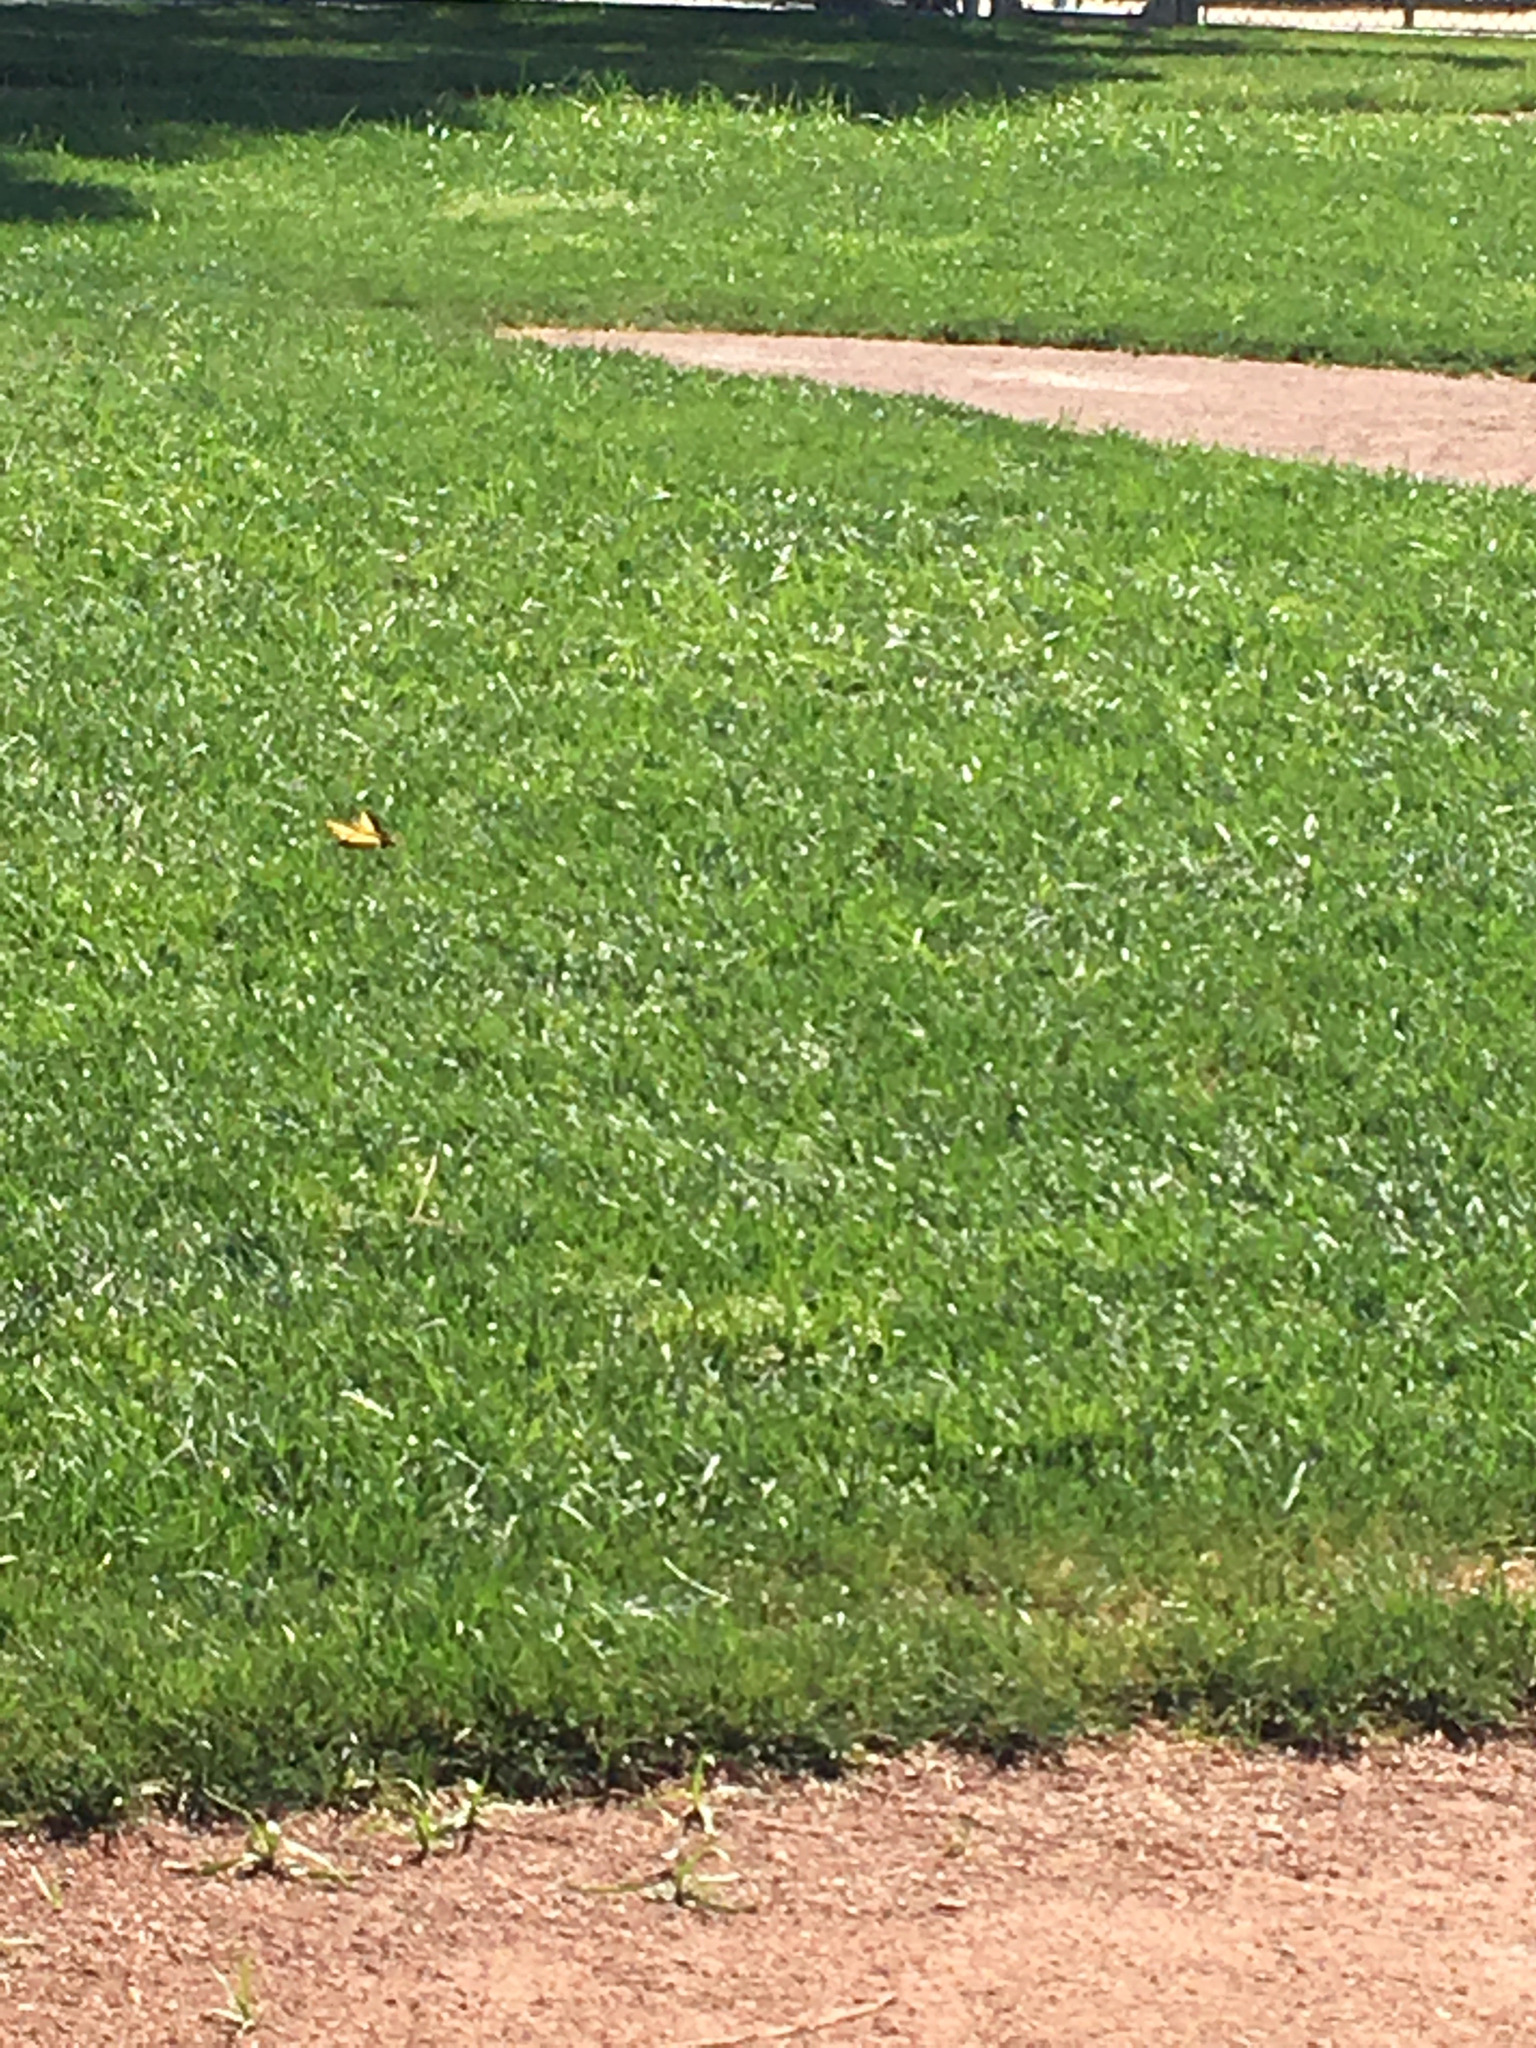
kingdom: Animalia
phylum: Arthropoda
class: Insecta
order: Lepidoptera
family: Papilionidae
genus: Papilio
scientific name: Papilio rutulus
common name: Western tiger swallowtail
